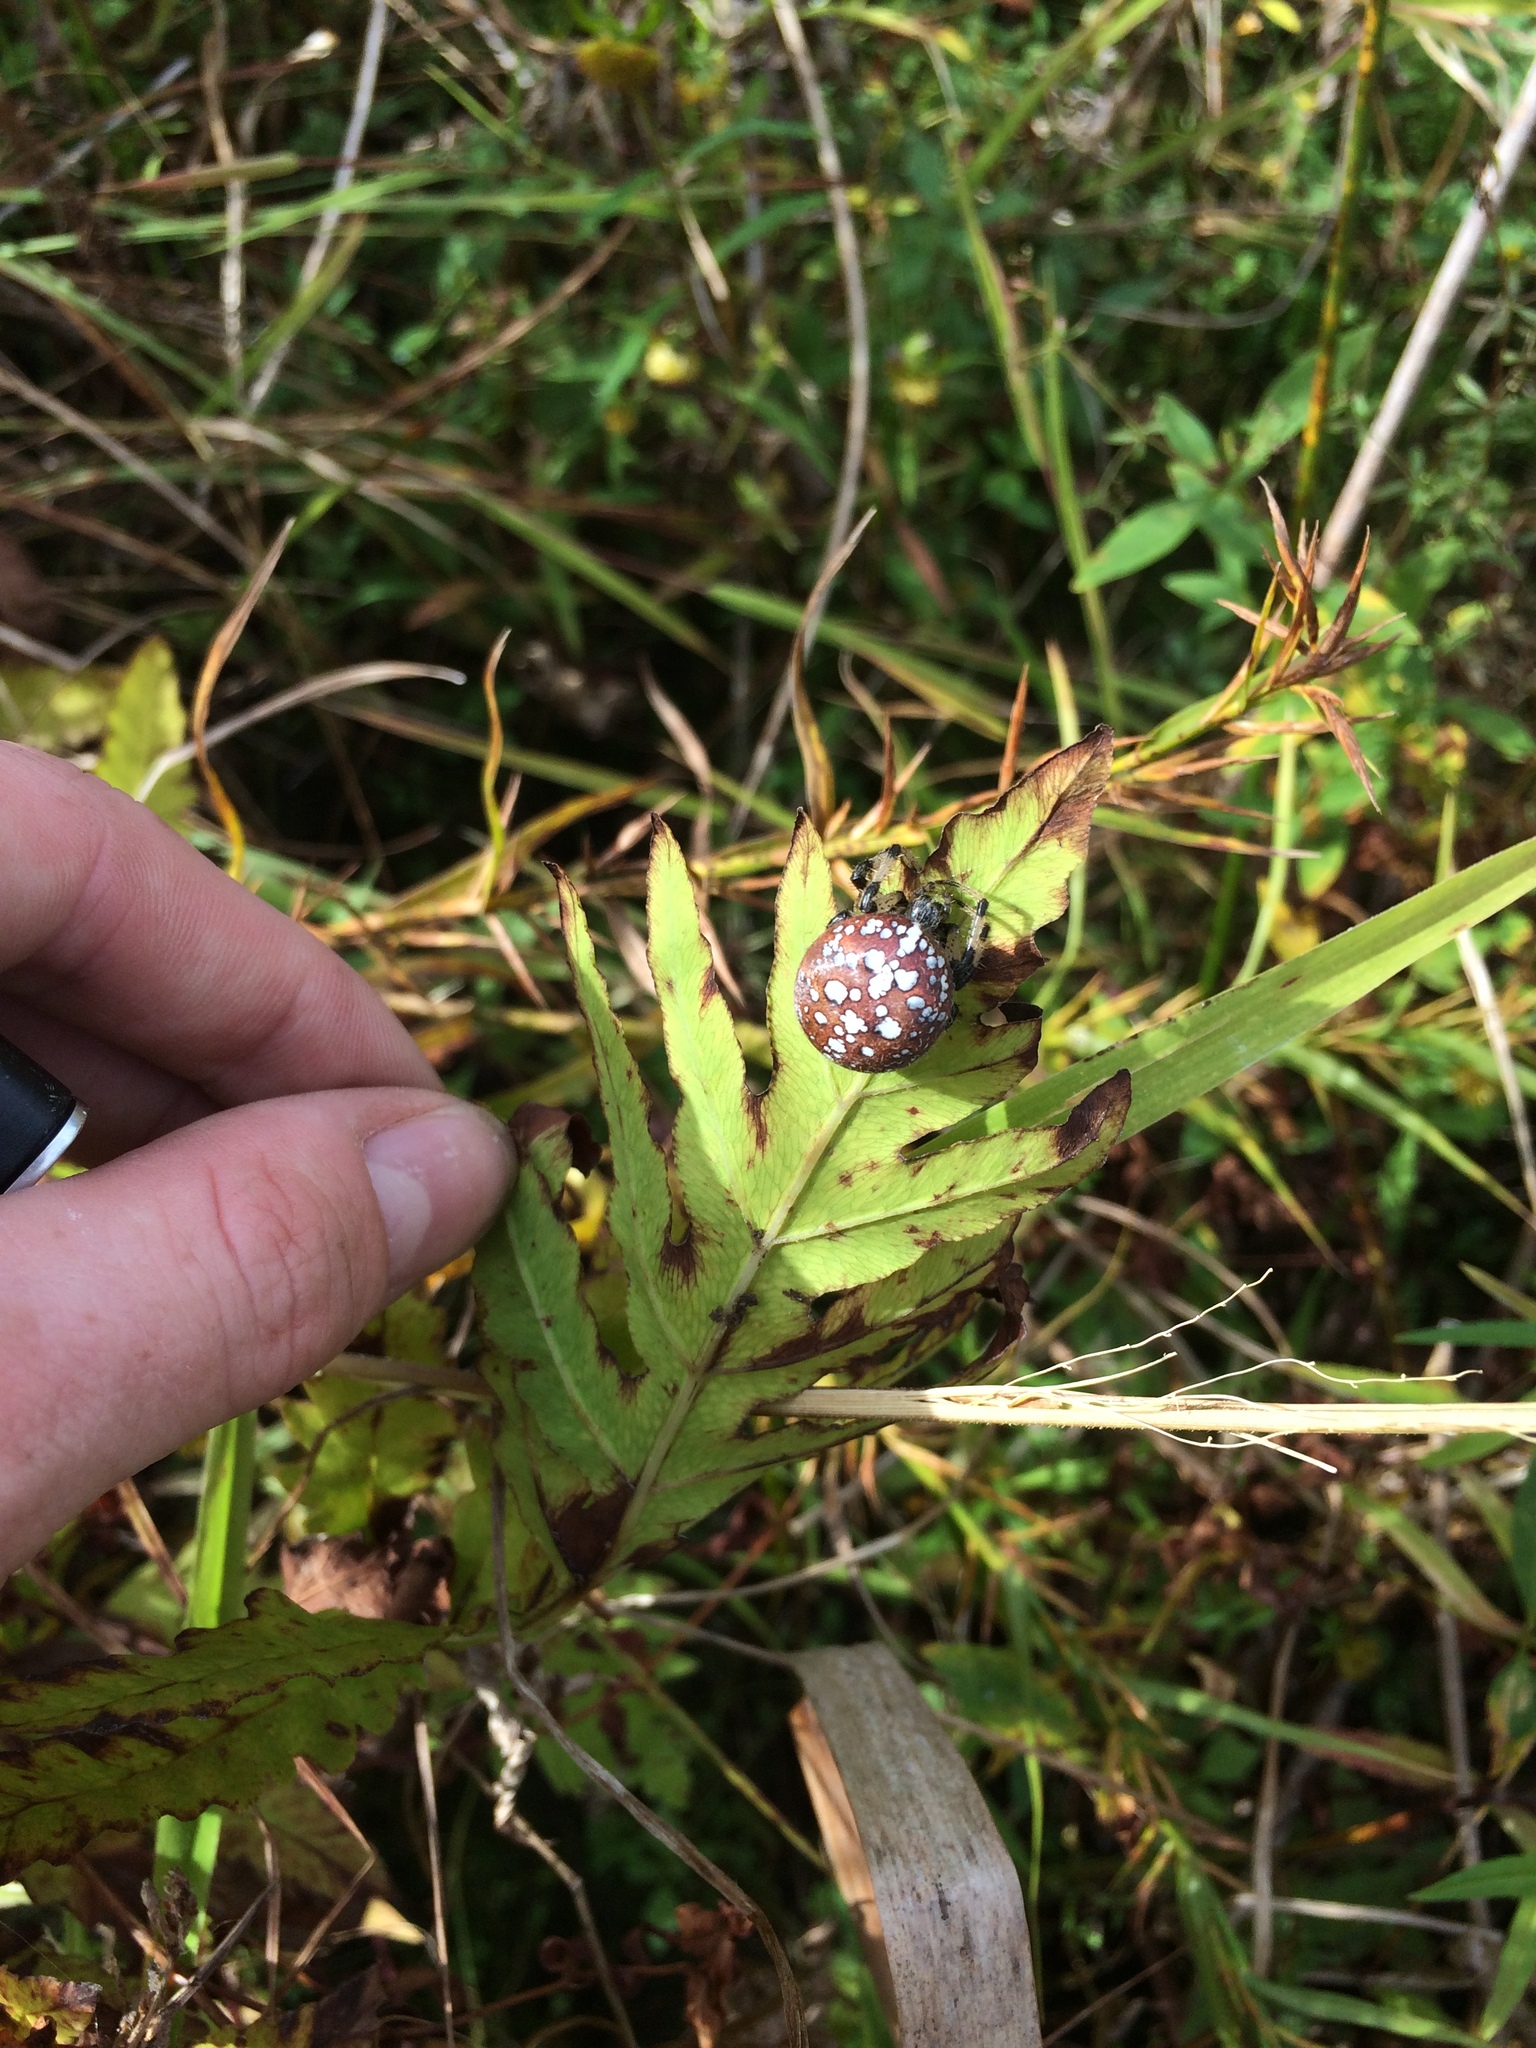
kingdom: Animalia
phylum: Arthropoda
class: Arachnida
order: Araneae
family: Araneidae
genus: Araneus
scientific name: Araneus trifolium
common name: Shamrock orbweaver
